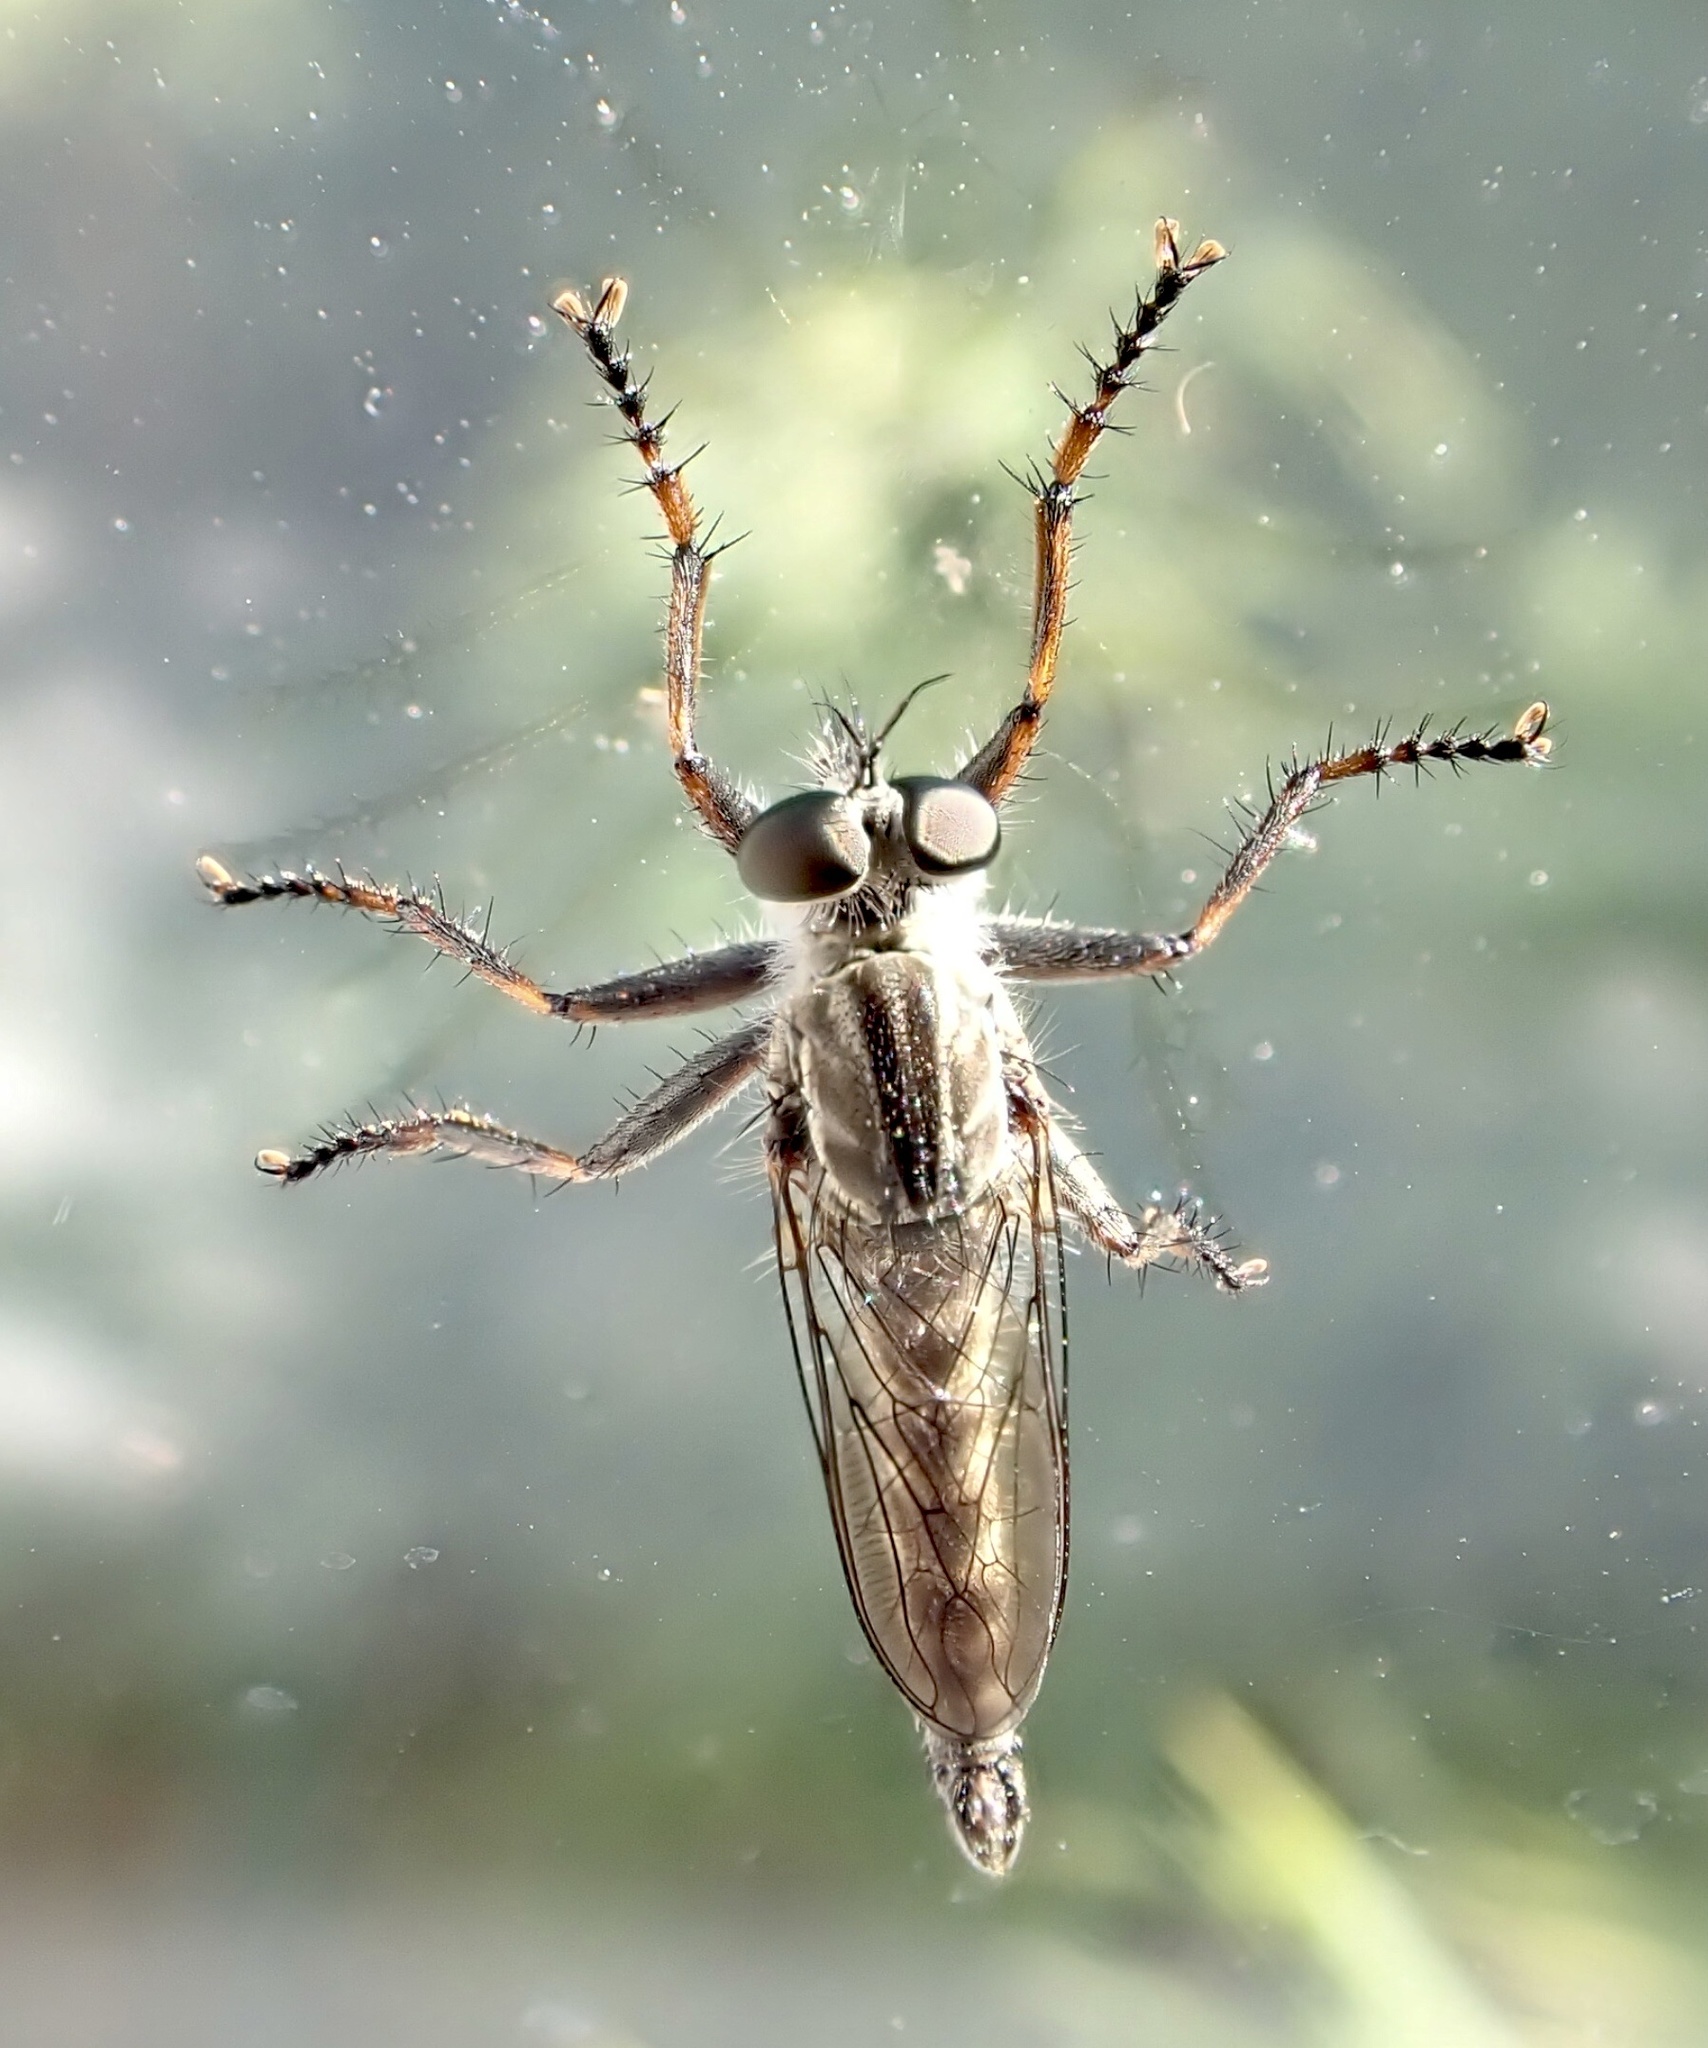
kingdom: Animalia
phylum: Arthropoda
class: Insecta
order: Diptera
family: Asilidae
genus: Machimus
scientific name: Machimus atricapillus
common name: Kite-tailed robberfly
